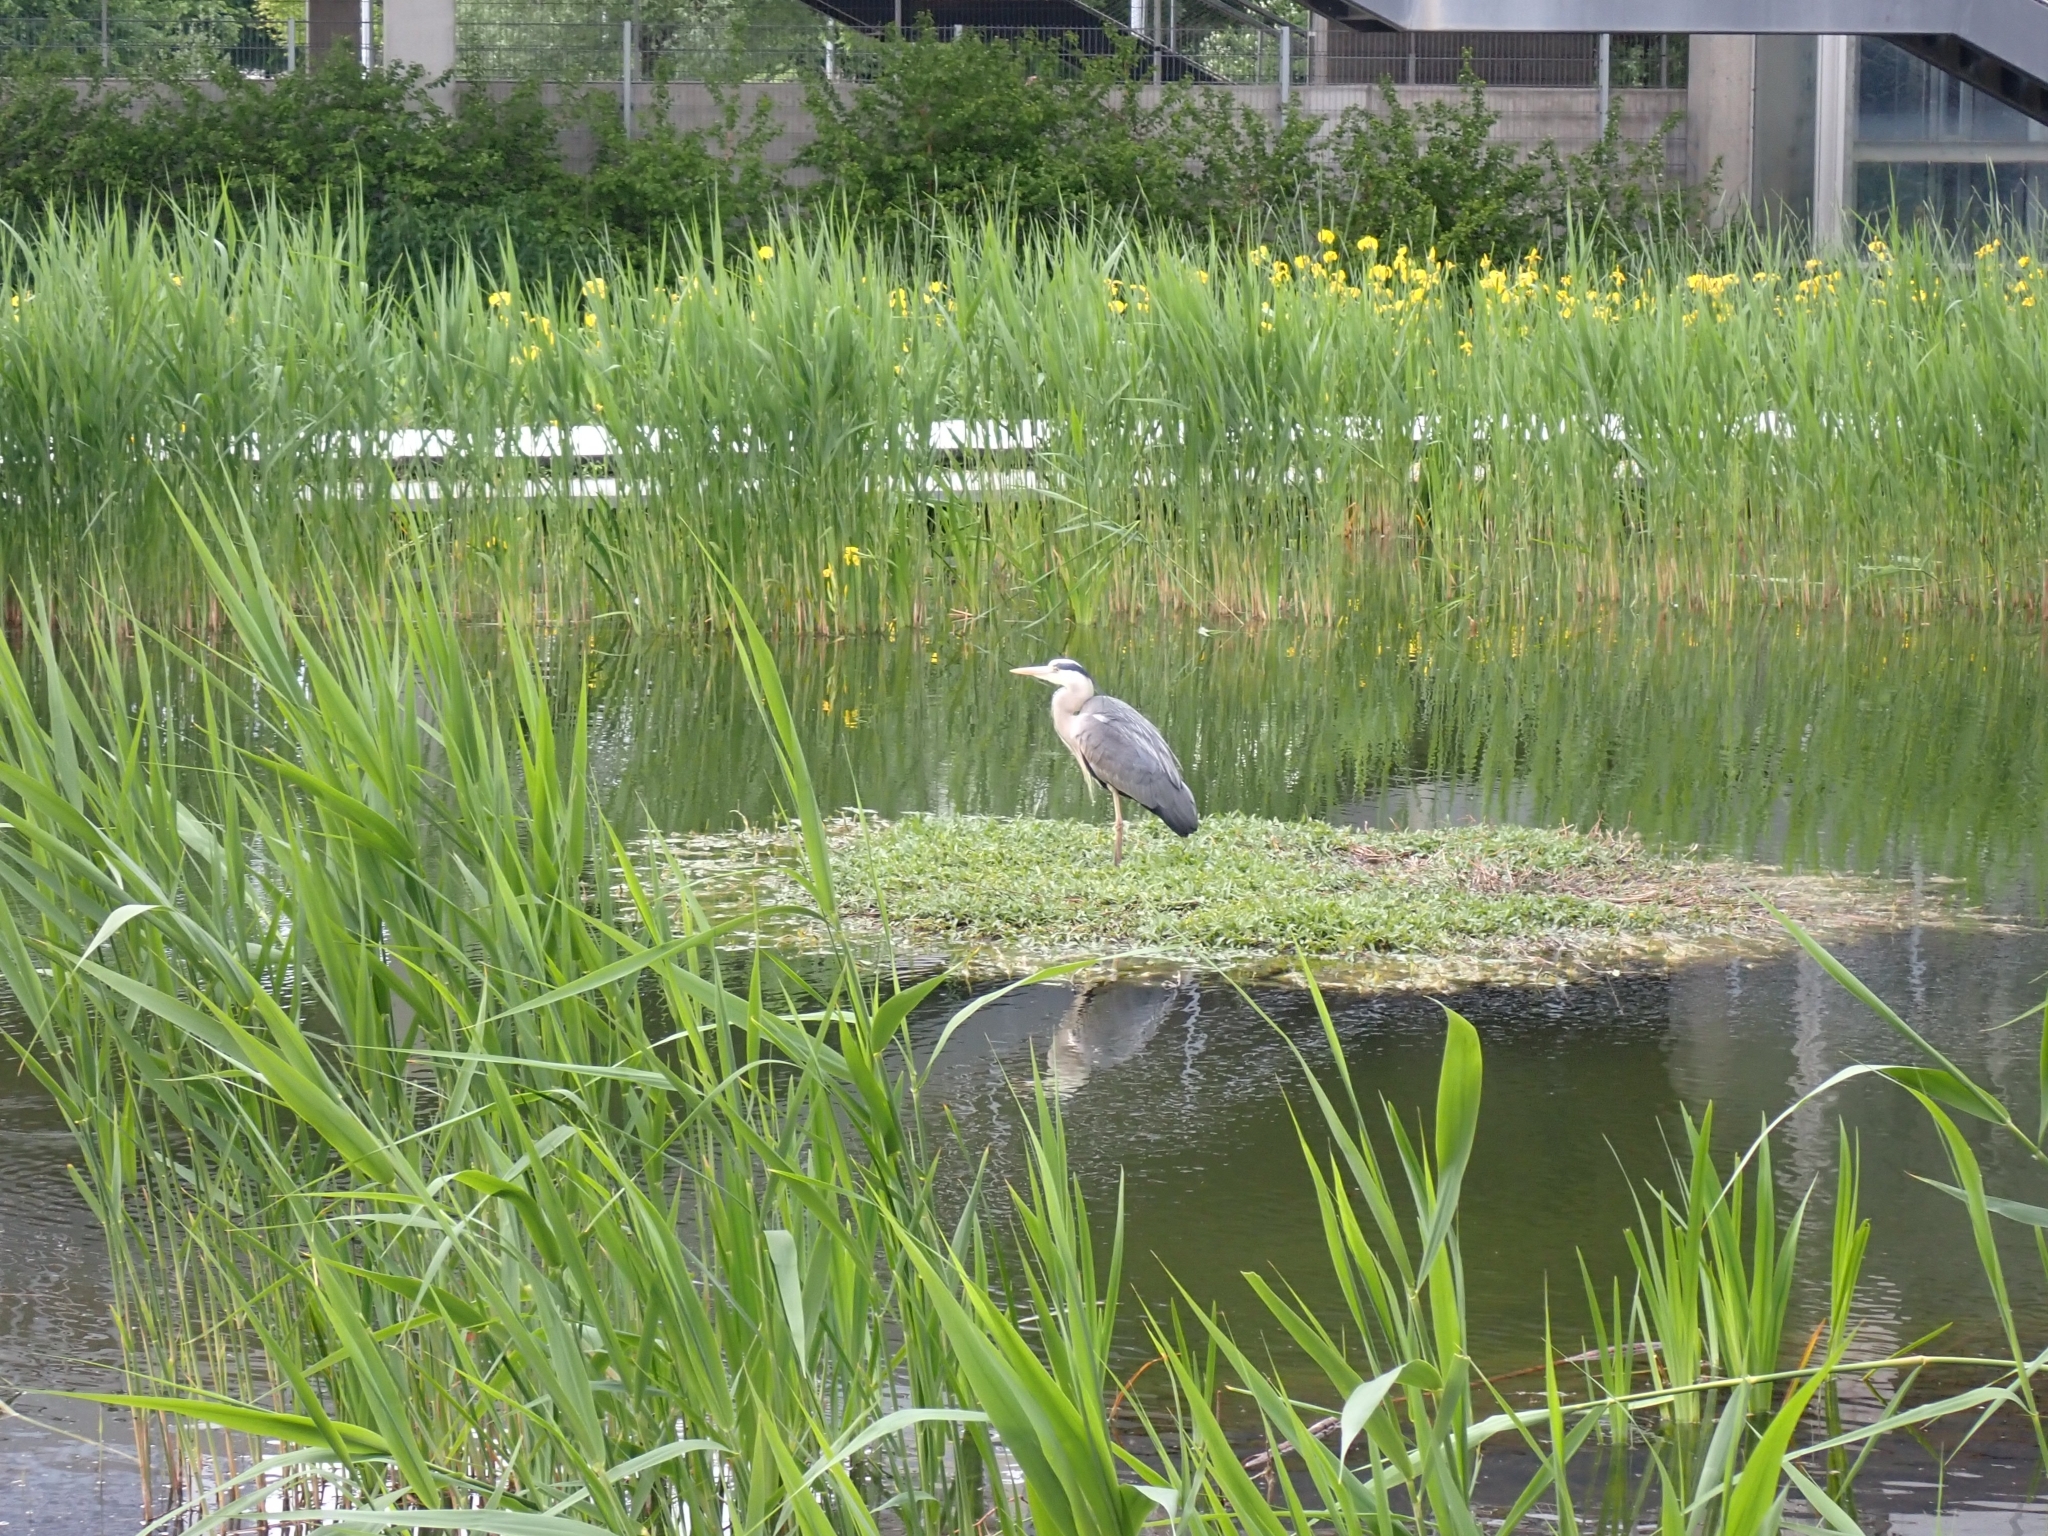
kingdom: Animalia
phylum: Chordata
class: Aves
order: Pelecaniformes
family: Ardeidae
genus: Ardea
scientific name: Ardea cinerea
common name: Grey heron
